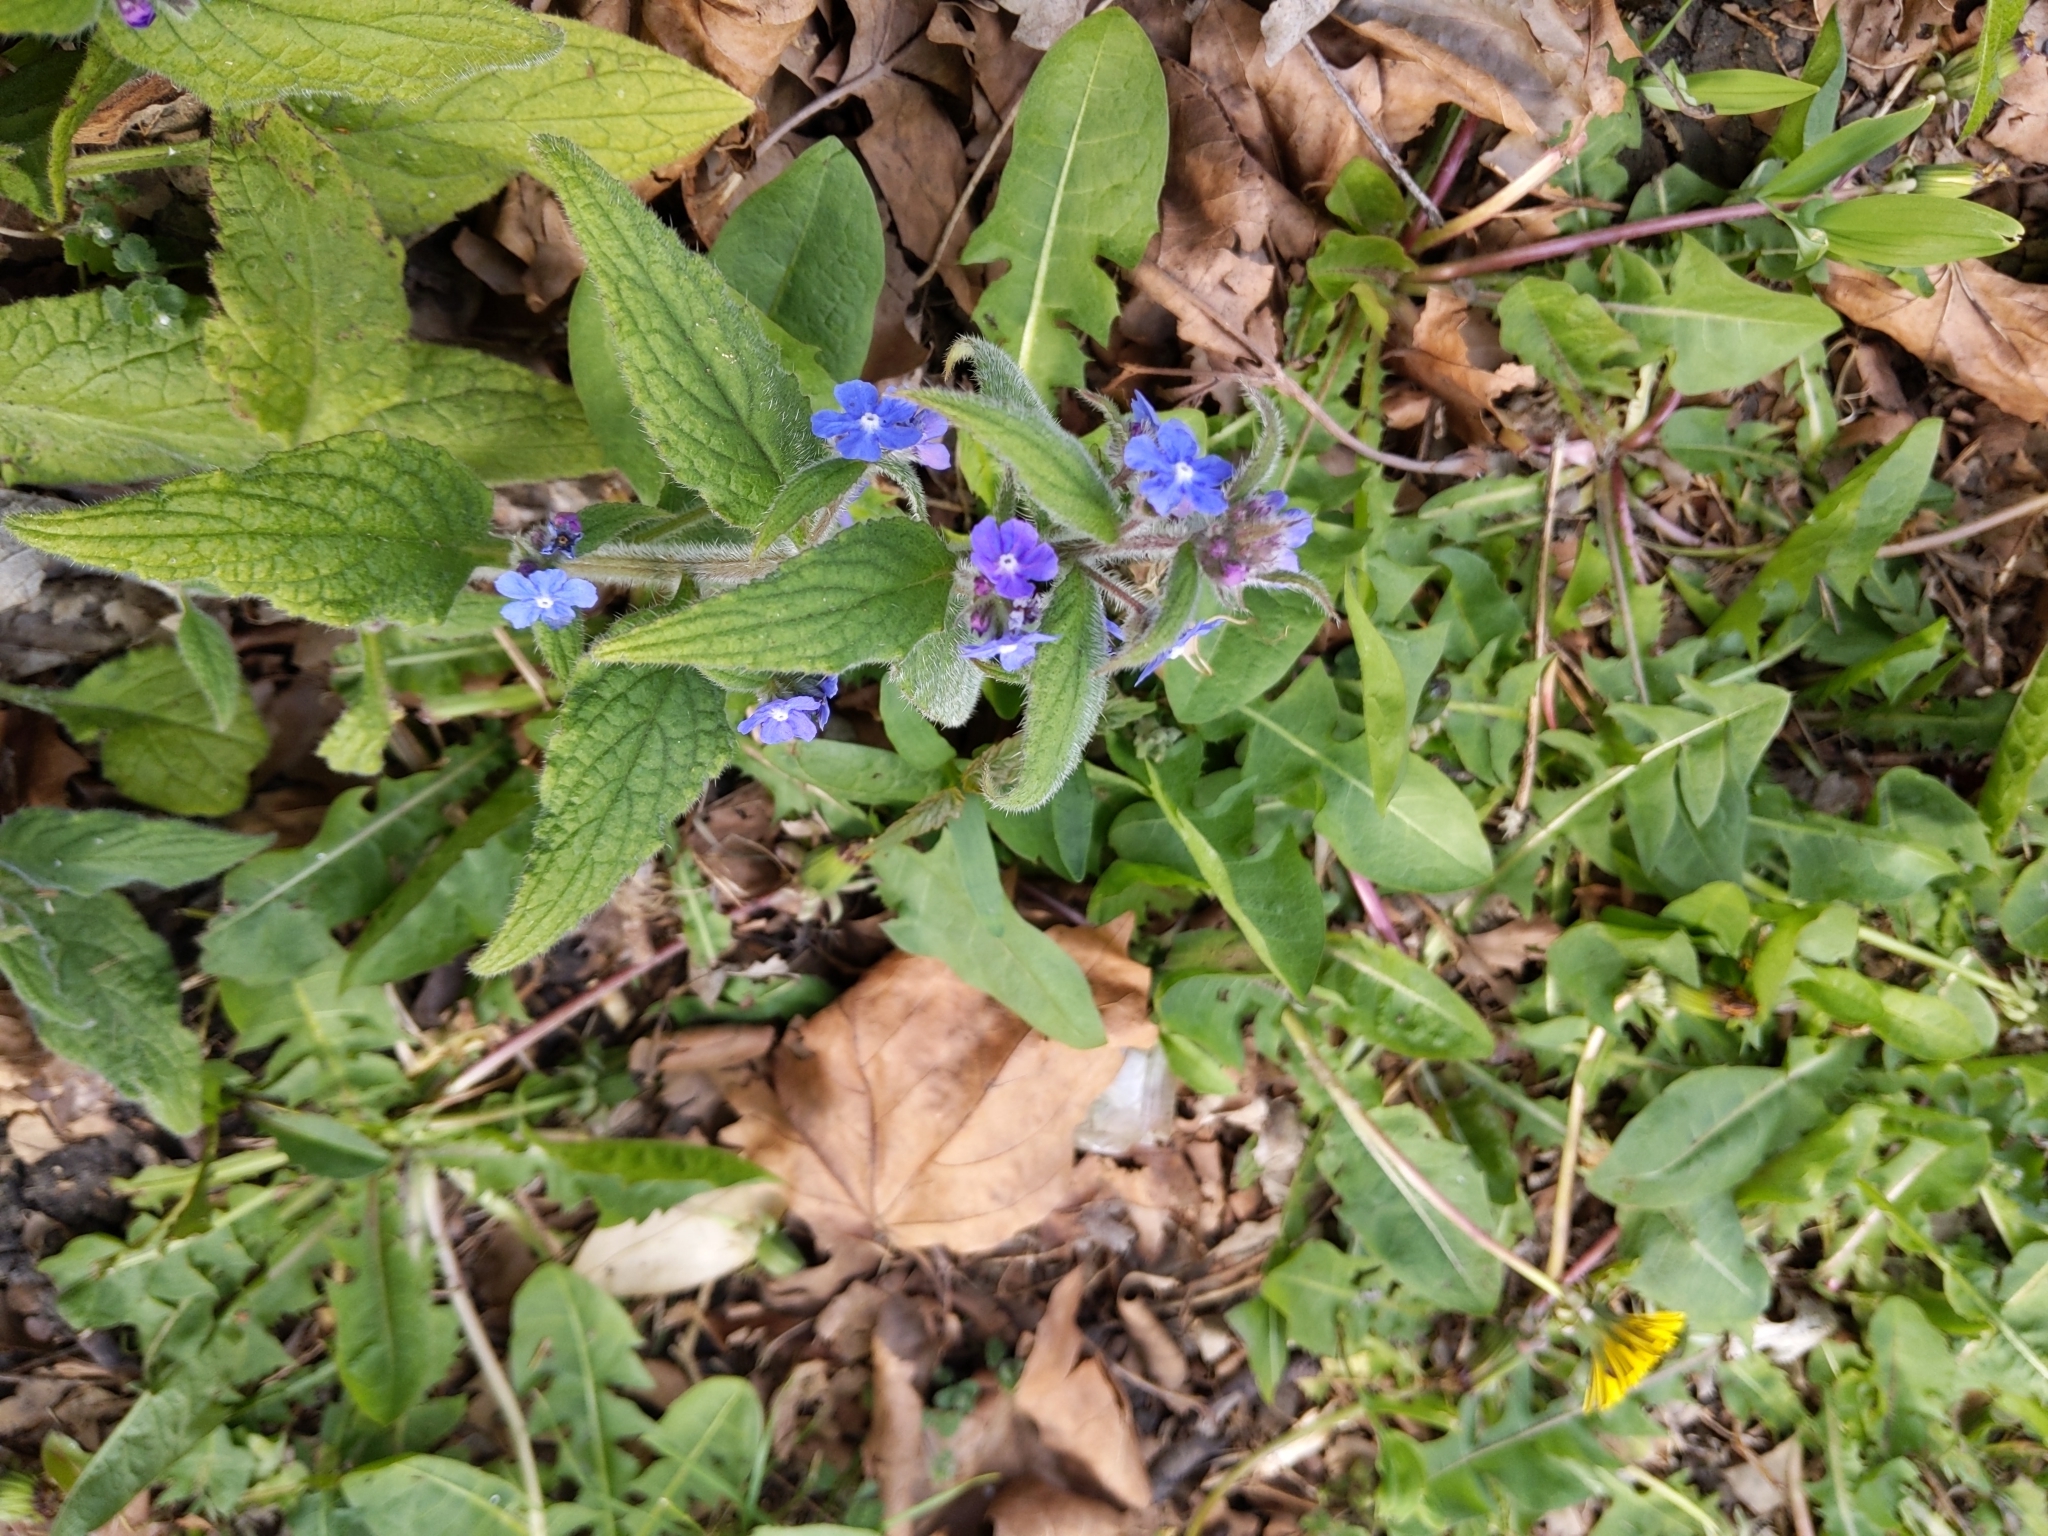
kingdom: Plantae
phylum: Tracheophyta
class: Magnoliopsida
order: Boraginales
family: Boraginaceae
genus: Pentaglottis
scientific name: Pentaglottis sempervirens
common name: Green alkanet
